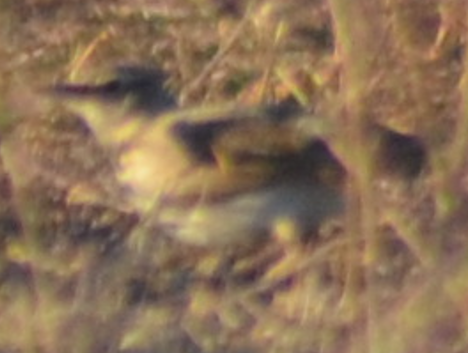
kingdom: Animalia
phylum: Chordata
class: Aves
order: Passeriformes
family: Alaudidae
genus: Galerida
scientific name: Galerida cristata
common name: Crested lark
